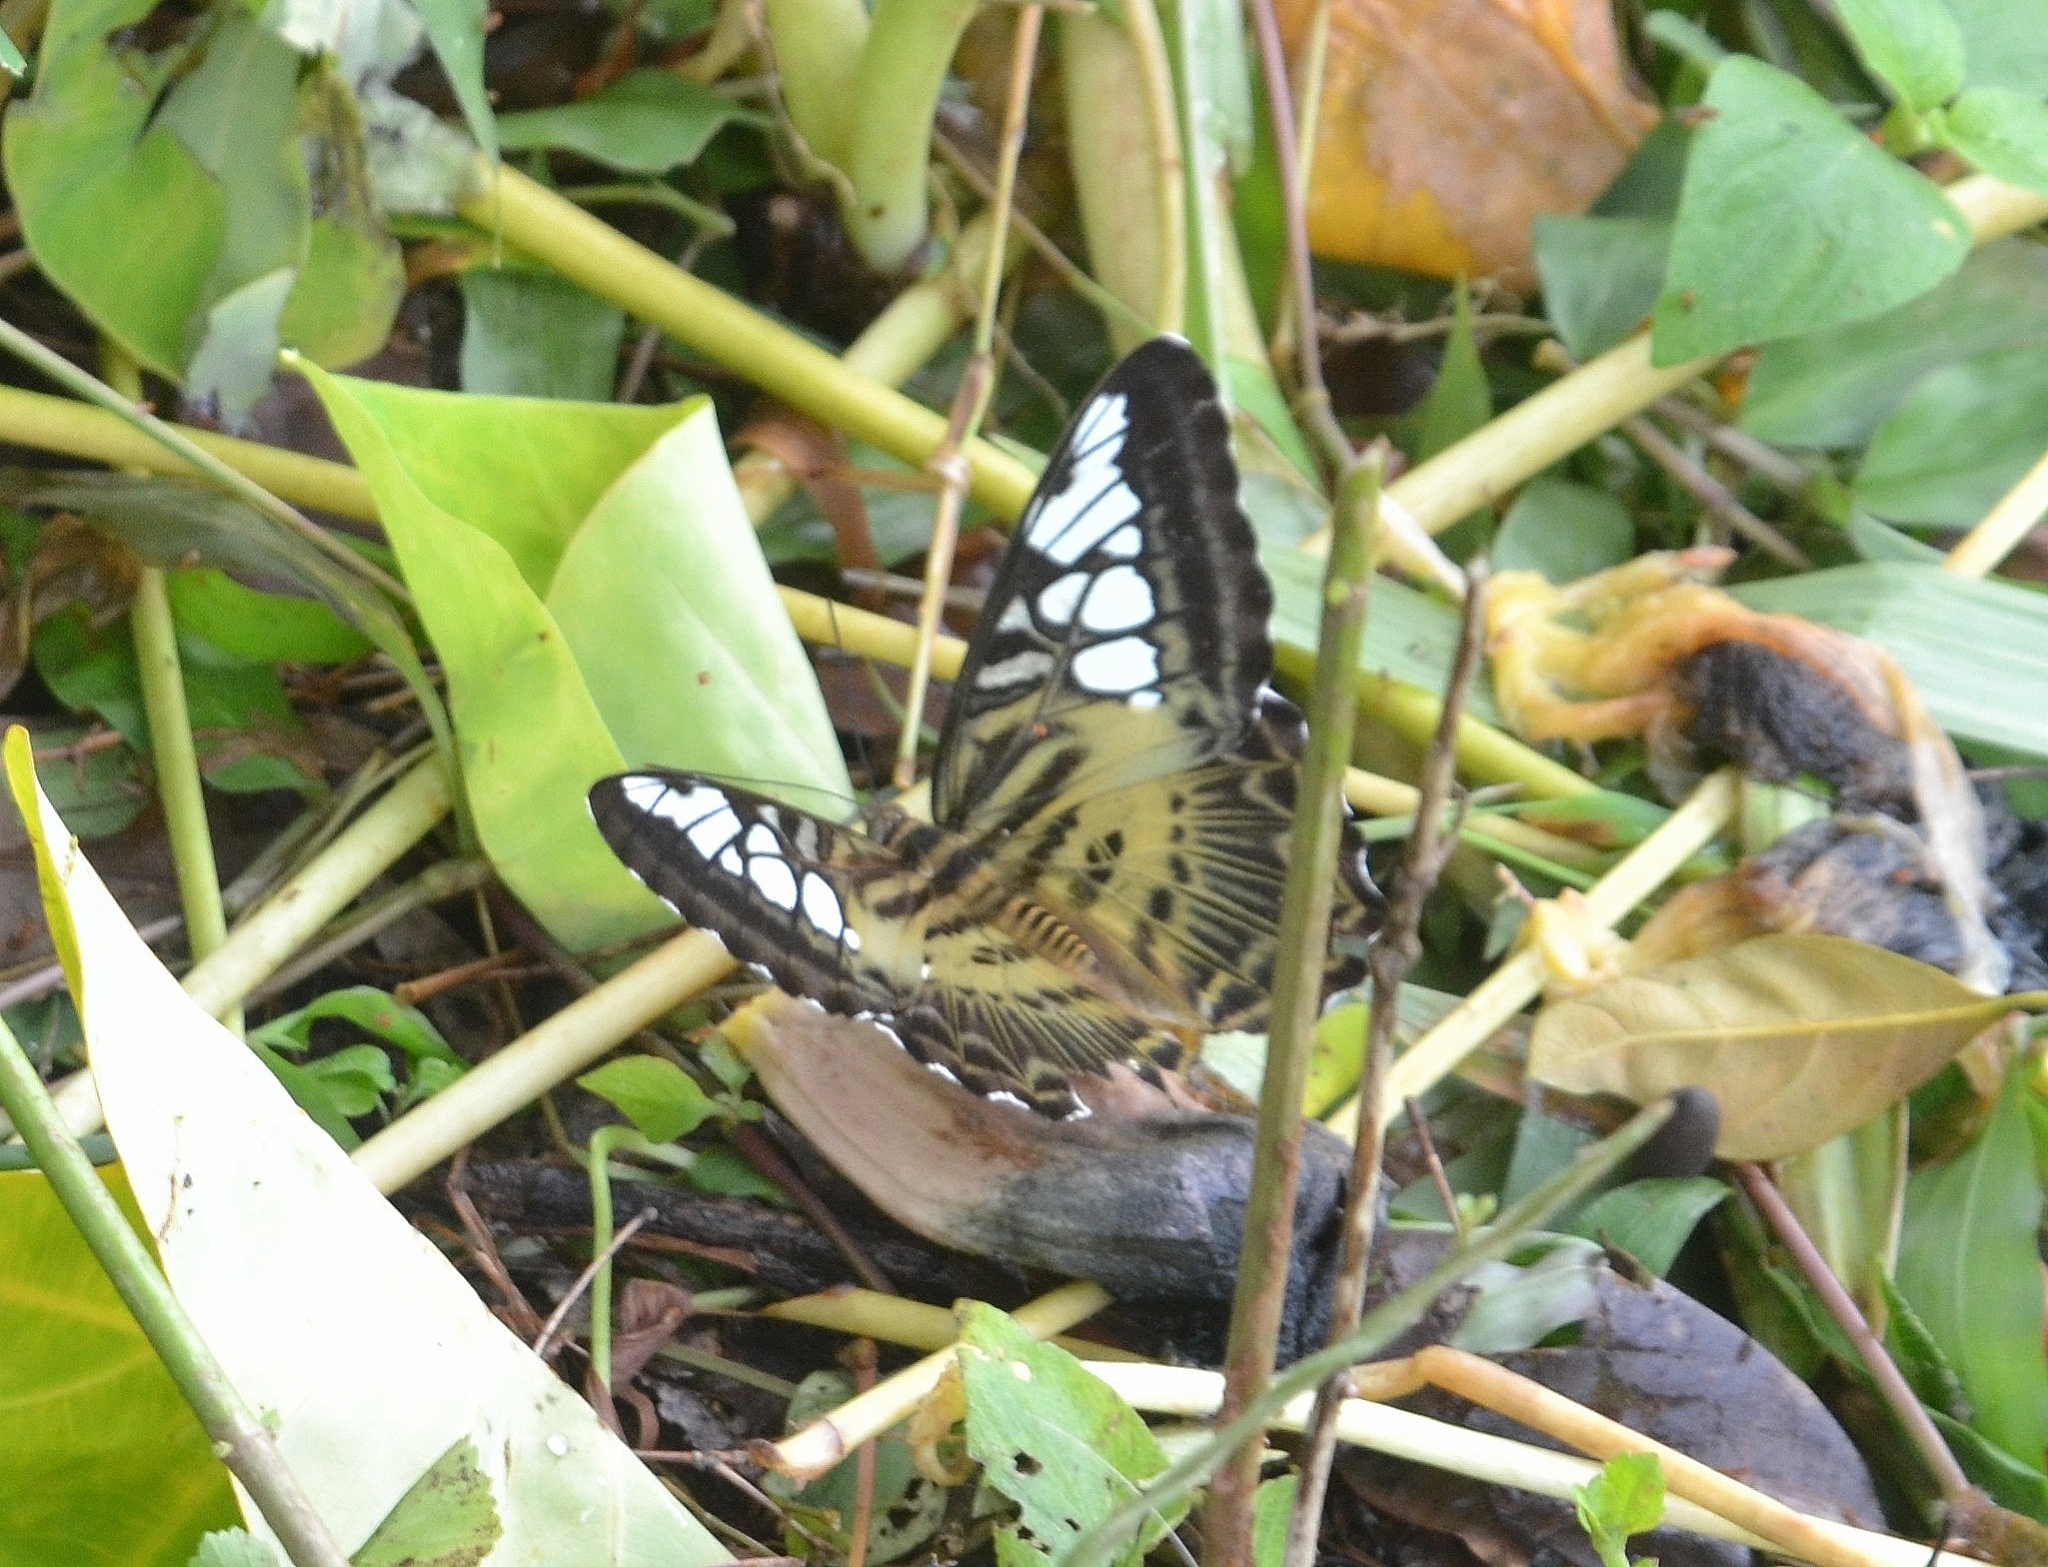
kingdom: Animalia
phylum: Arthropoda
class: Insecta
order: Lepidoptera
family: Nymphalidae
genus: Kallima
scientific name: Kallima sylvia
